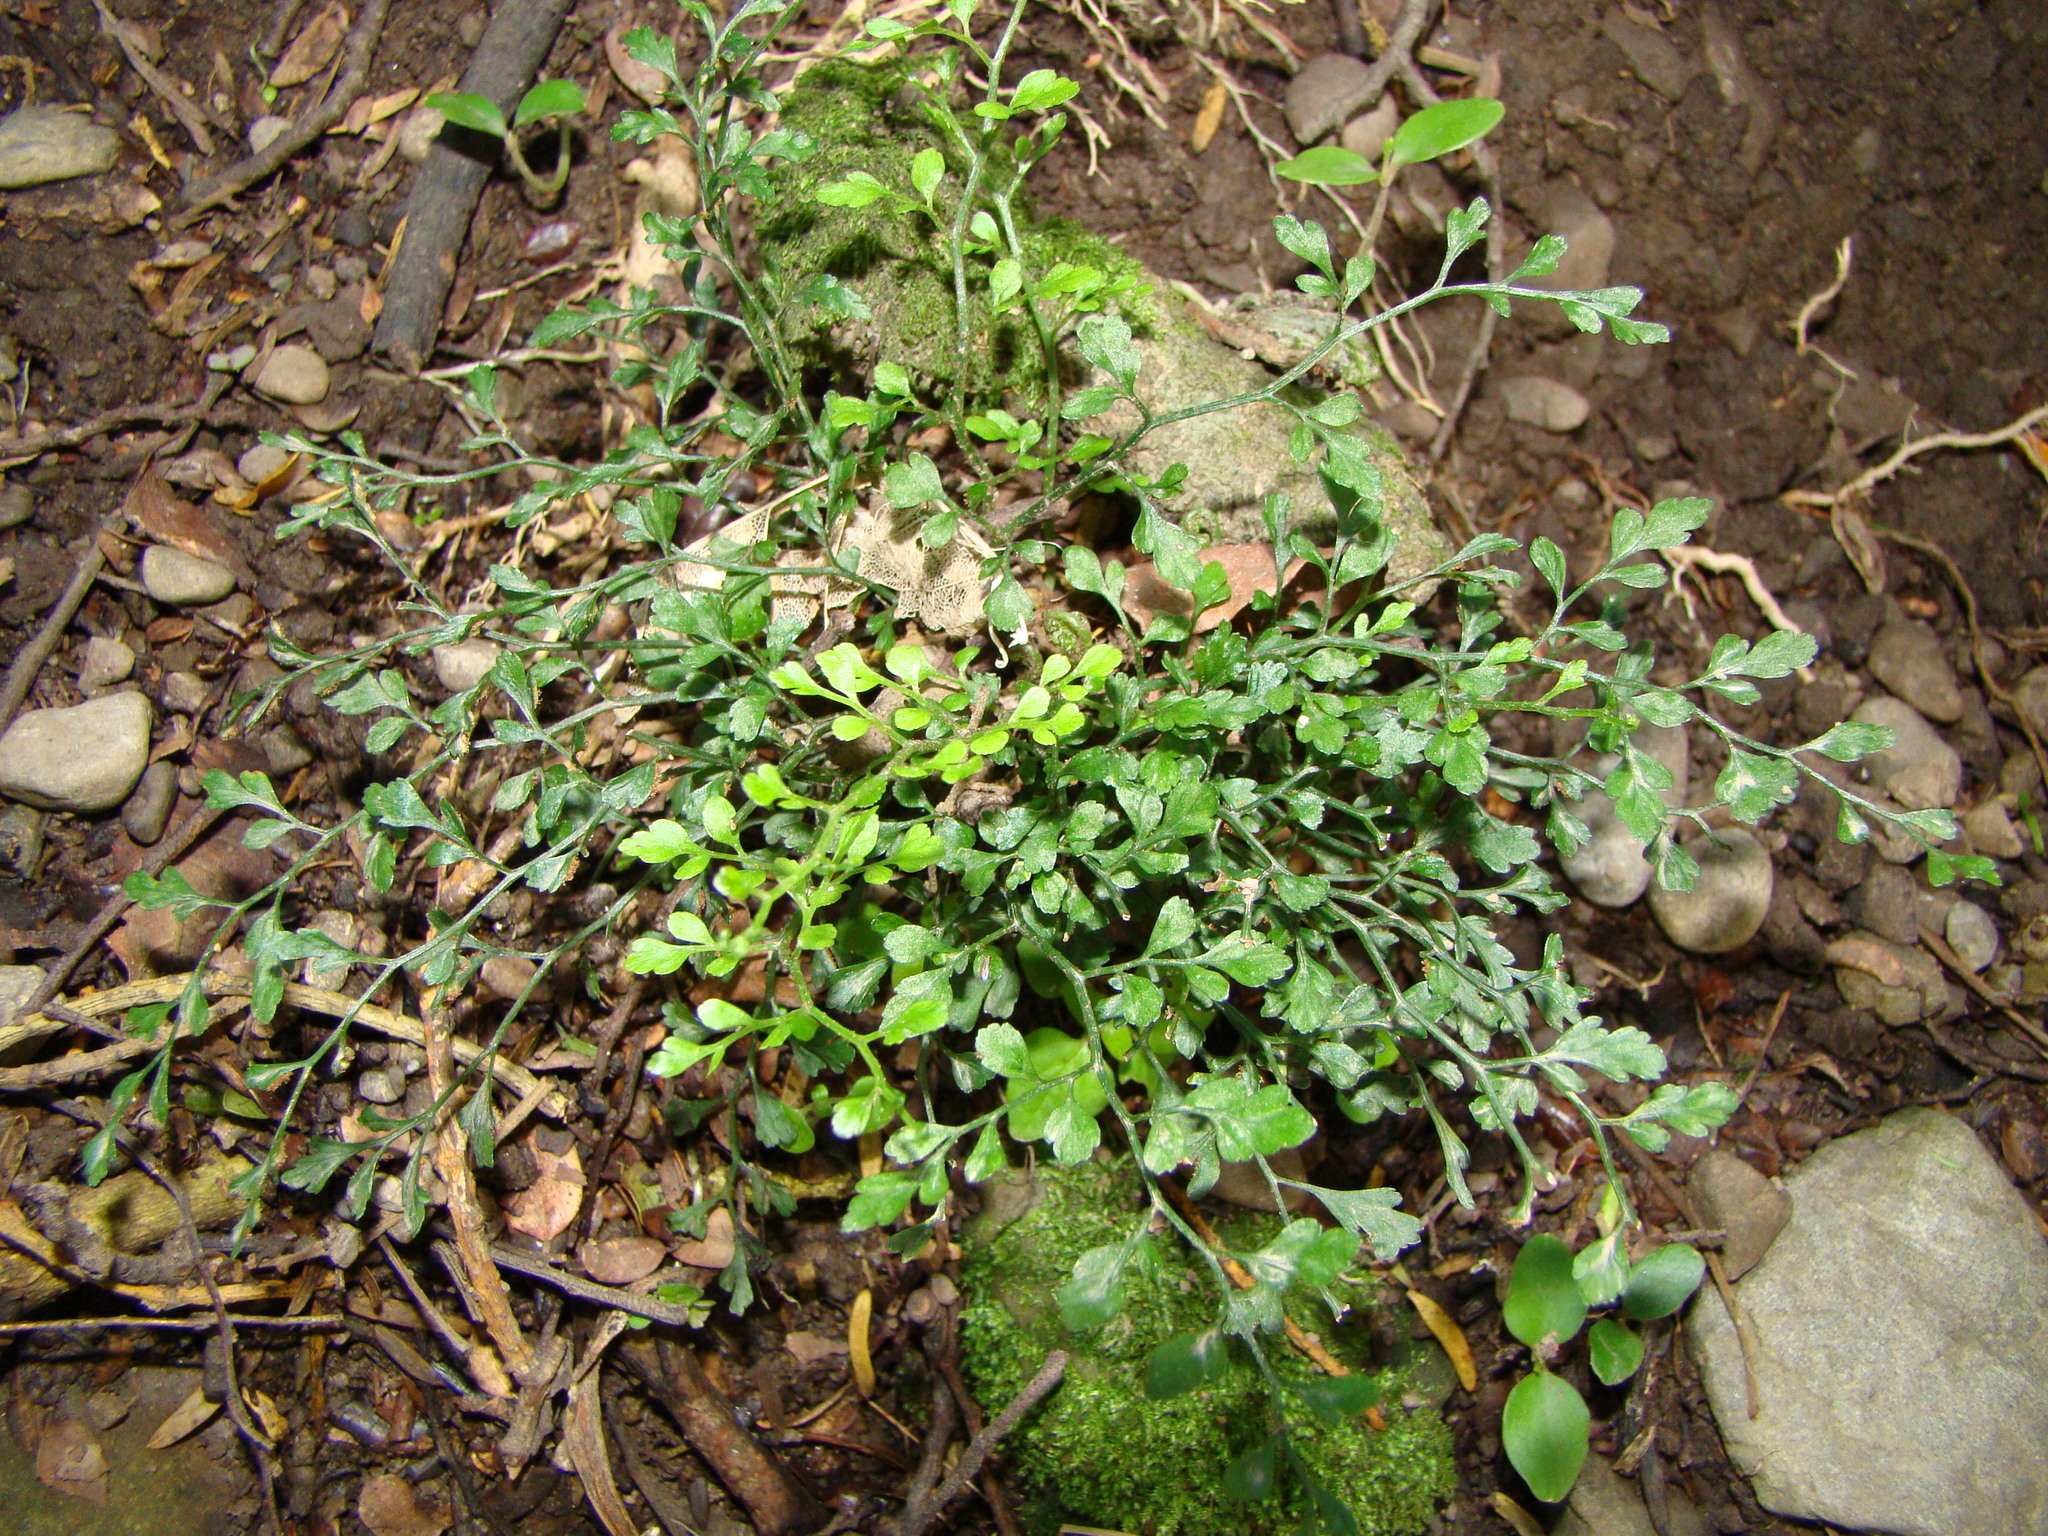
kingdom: Plantae
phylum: Tracheophyta
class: Polypodiopsida
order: Polypodiales
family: Aspleniaceae
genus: Asplenium
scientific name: Asplenium hookerianum
